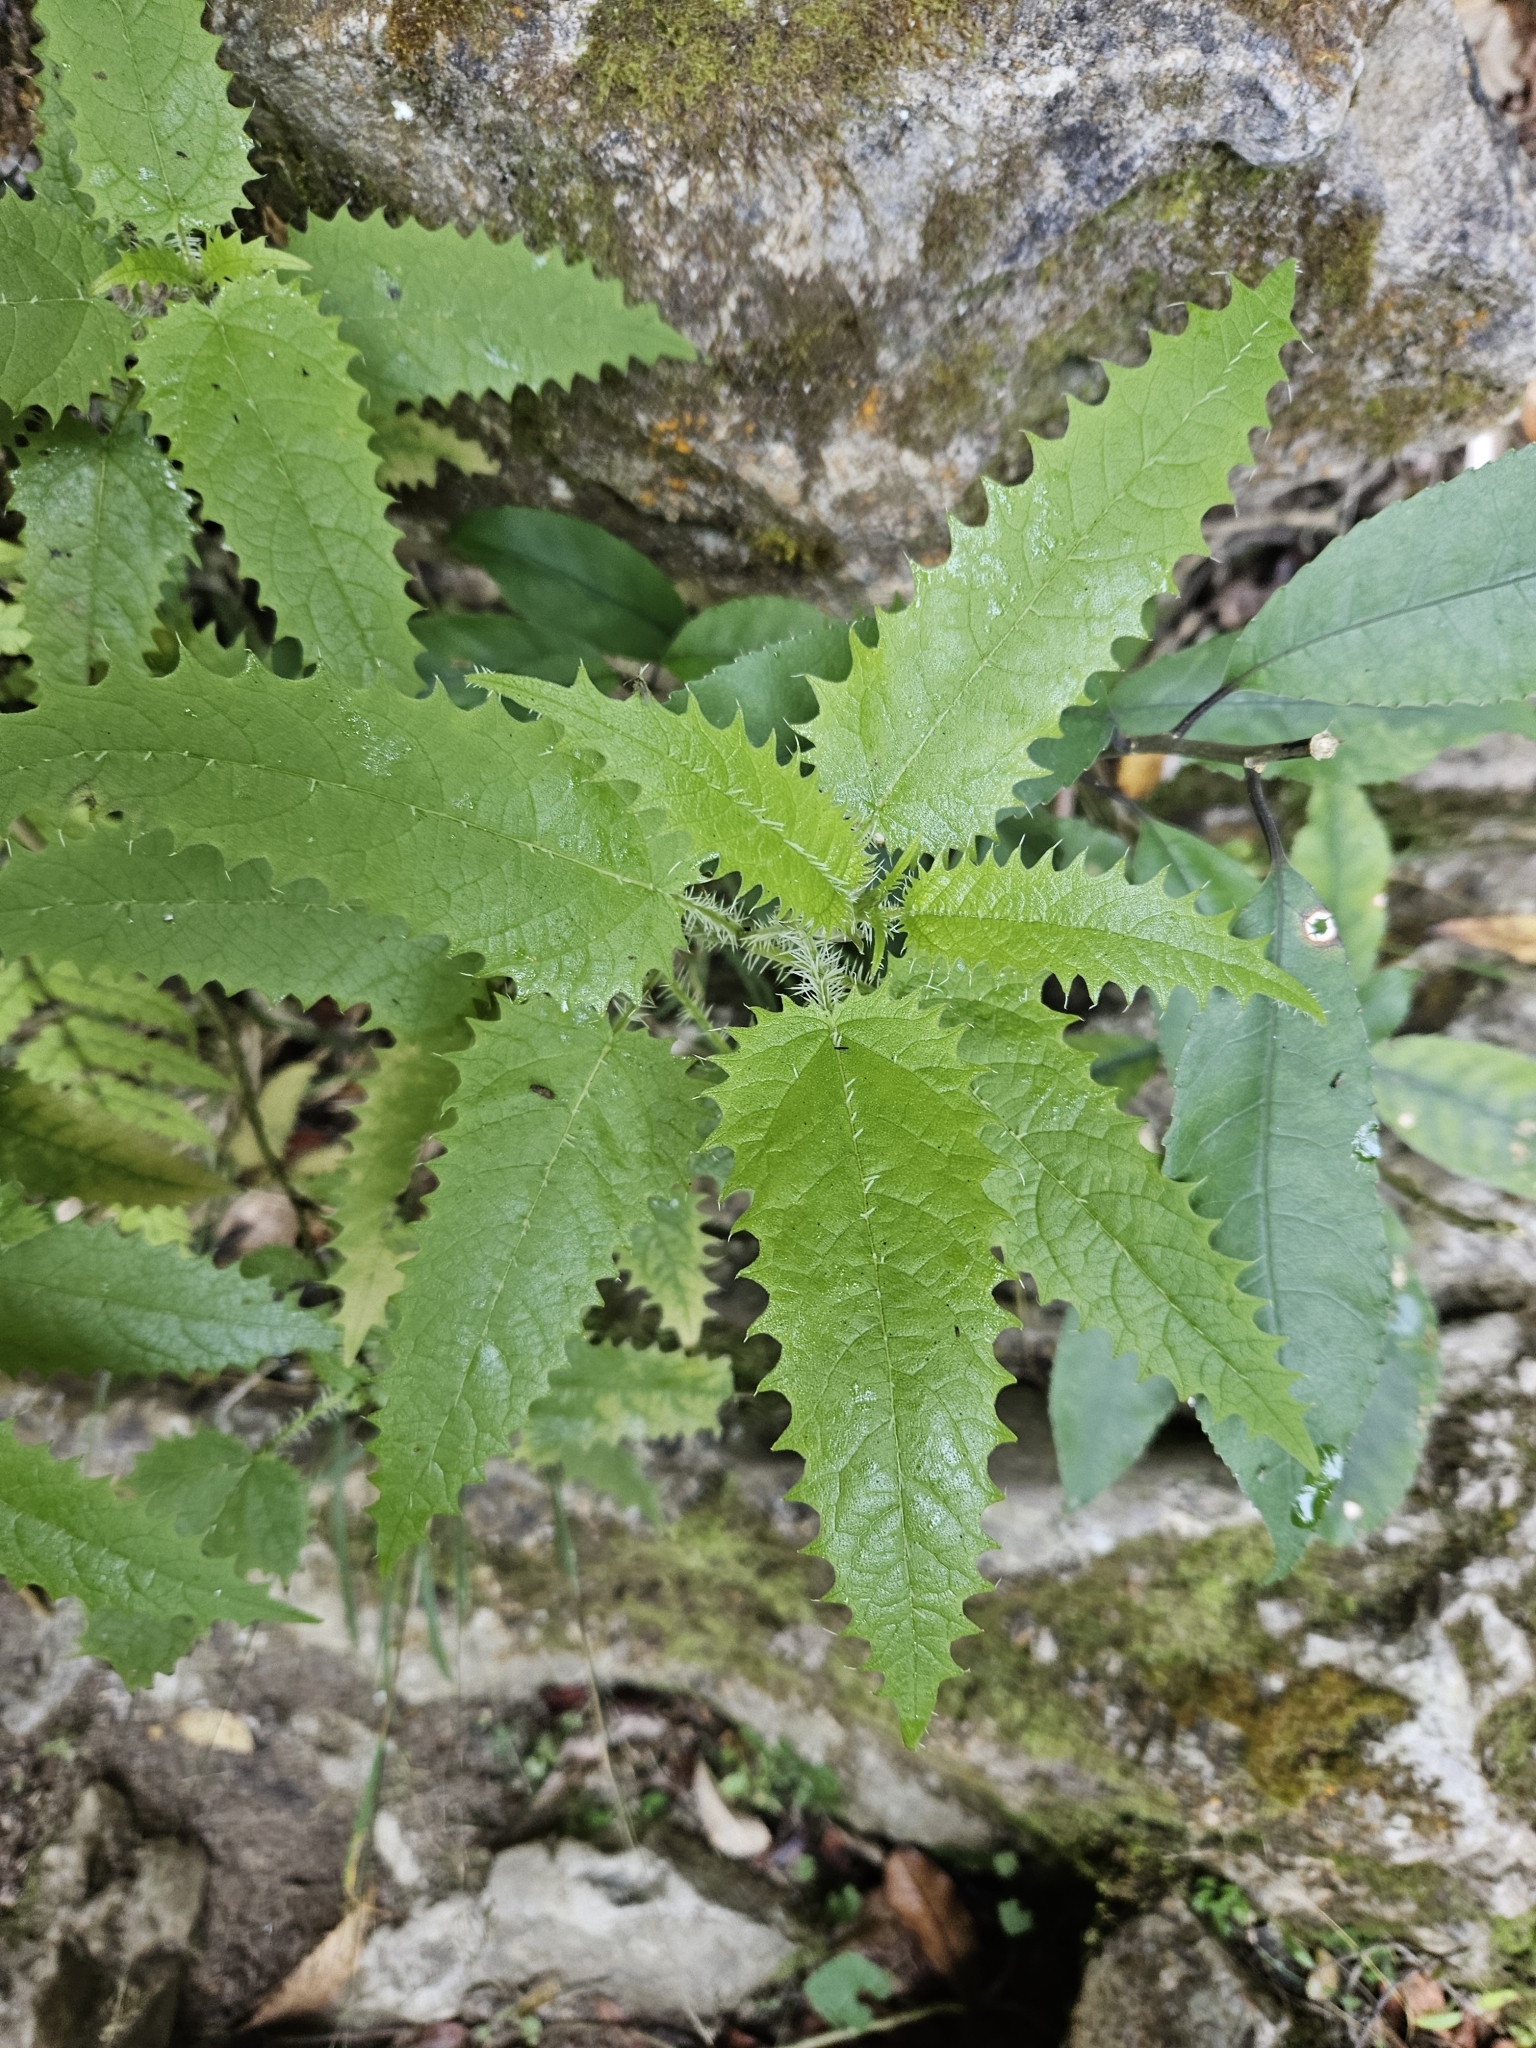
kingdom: Plantae
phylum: Tracheophyta
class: Magnoliopsida
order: Rosales
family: Urticaceae
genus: Urtica
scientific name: Urtica ferox
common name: Tree nettle
